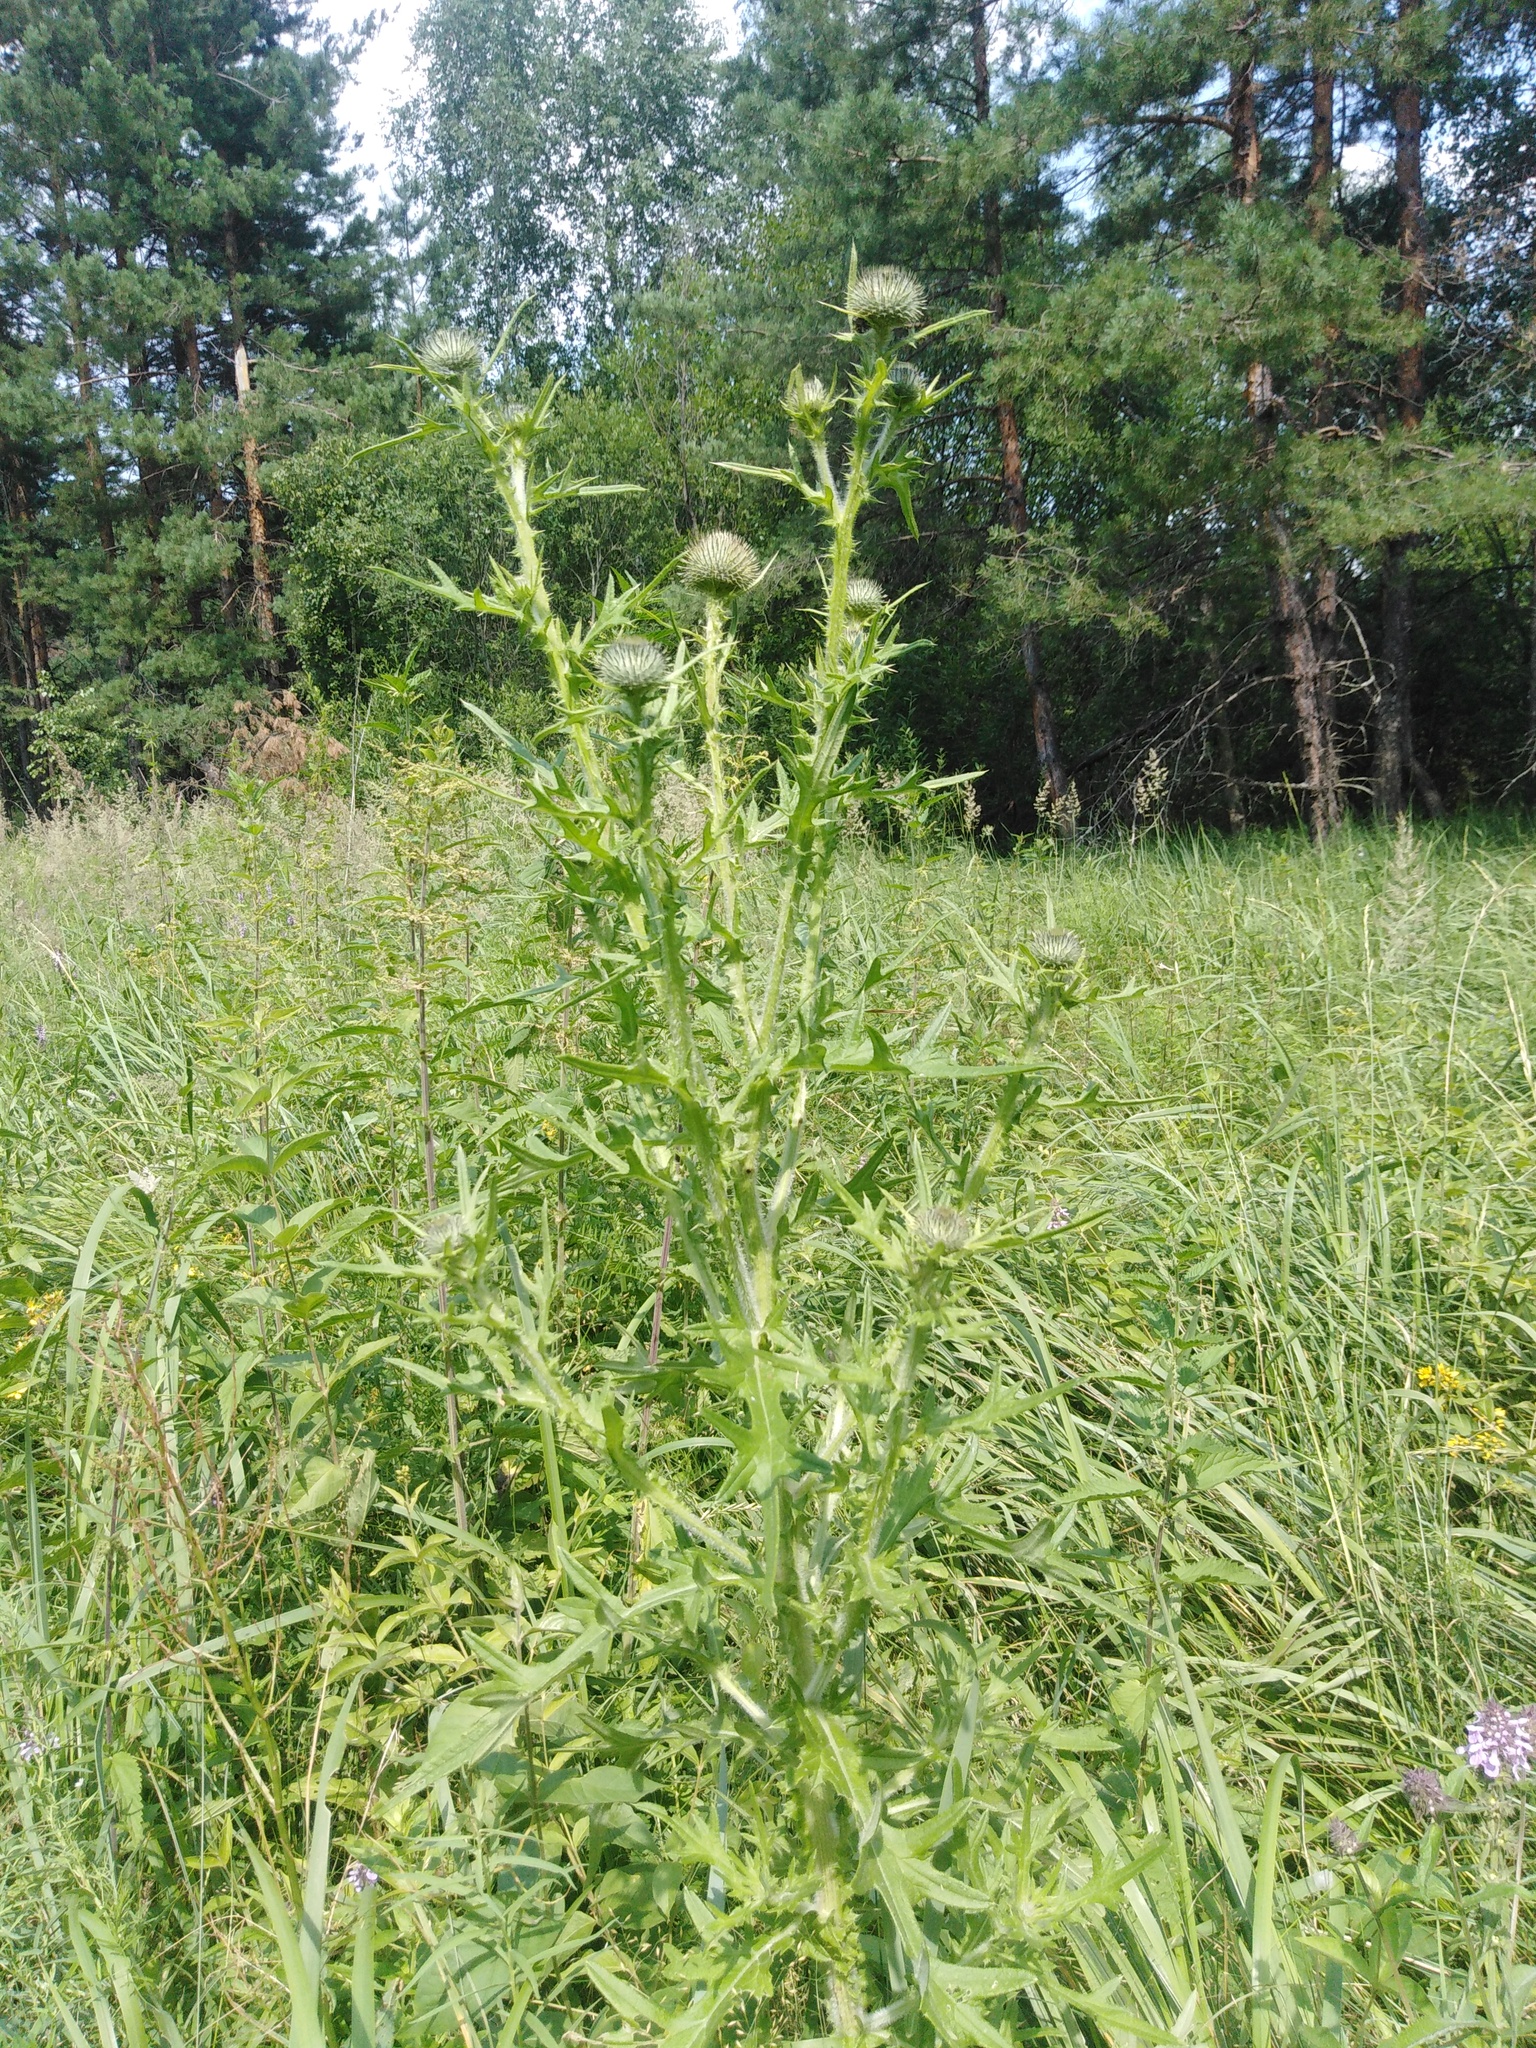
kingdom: Plantae
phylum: Tracheophyta
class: Magnoliopsida
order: Asterales
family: Asteraceae
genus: Cirsium
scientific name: Cirsium vulgare
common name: Bull thistle
